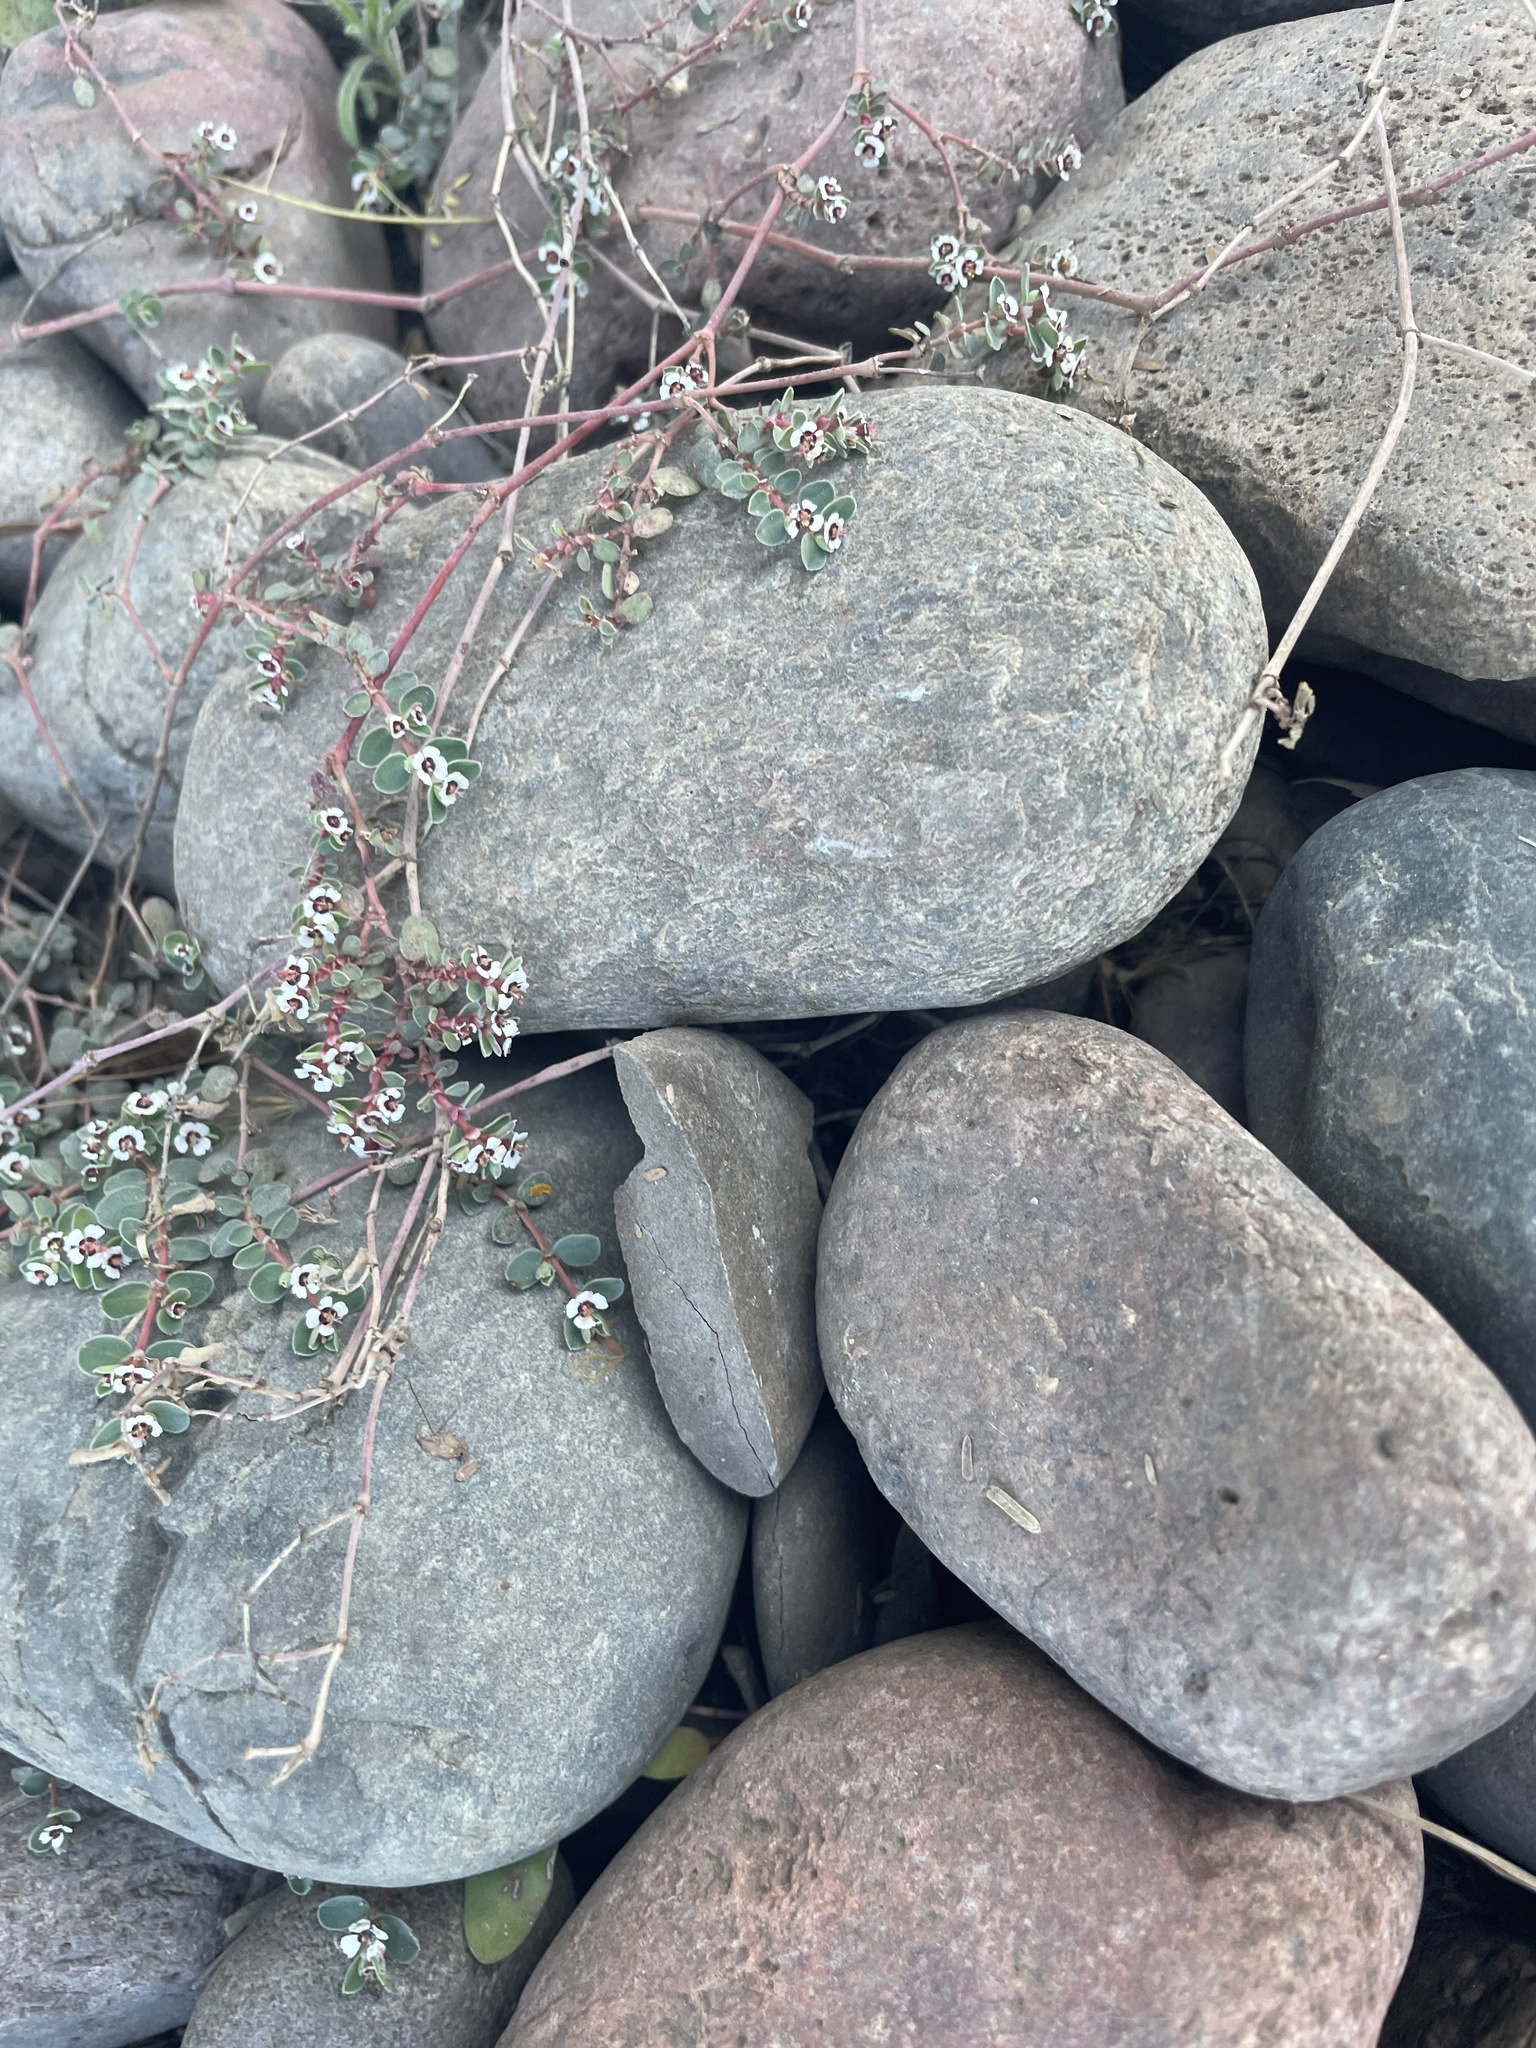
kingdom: Plantae
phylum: Tracheophyta
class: Magnoliopsida
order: Malpighiales
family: Euphorbiaceae
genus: Euphorbia
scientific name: Euphorbia albomarginata
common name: Whitemargin sandmat
